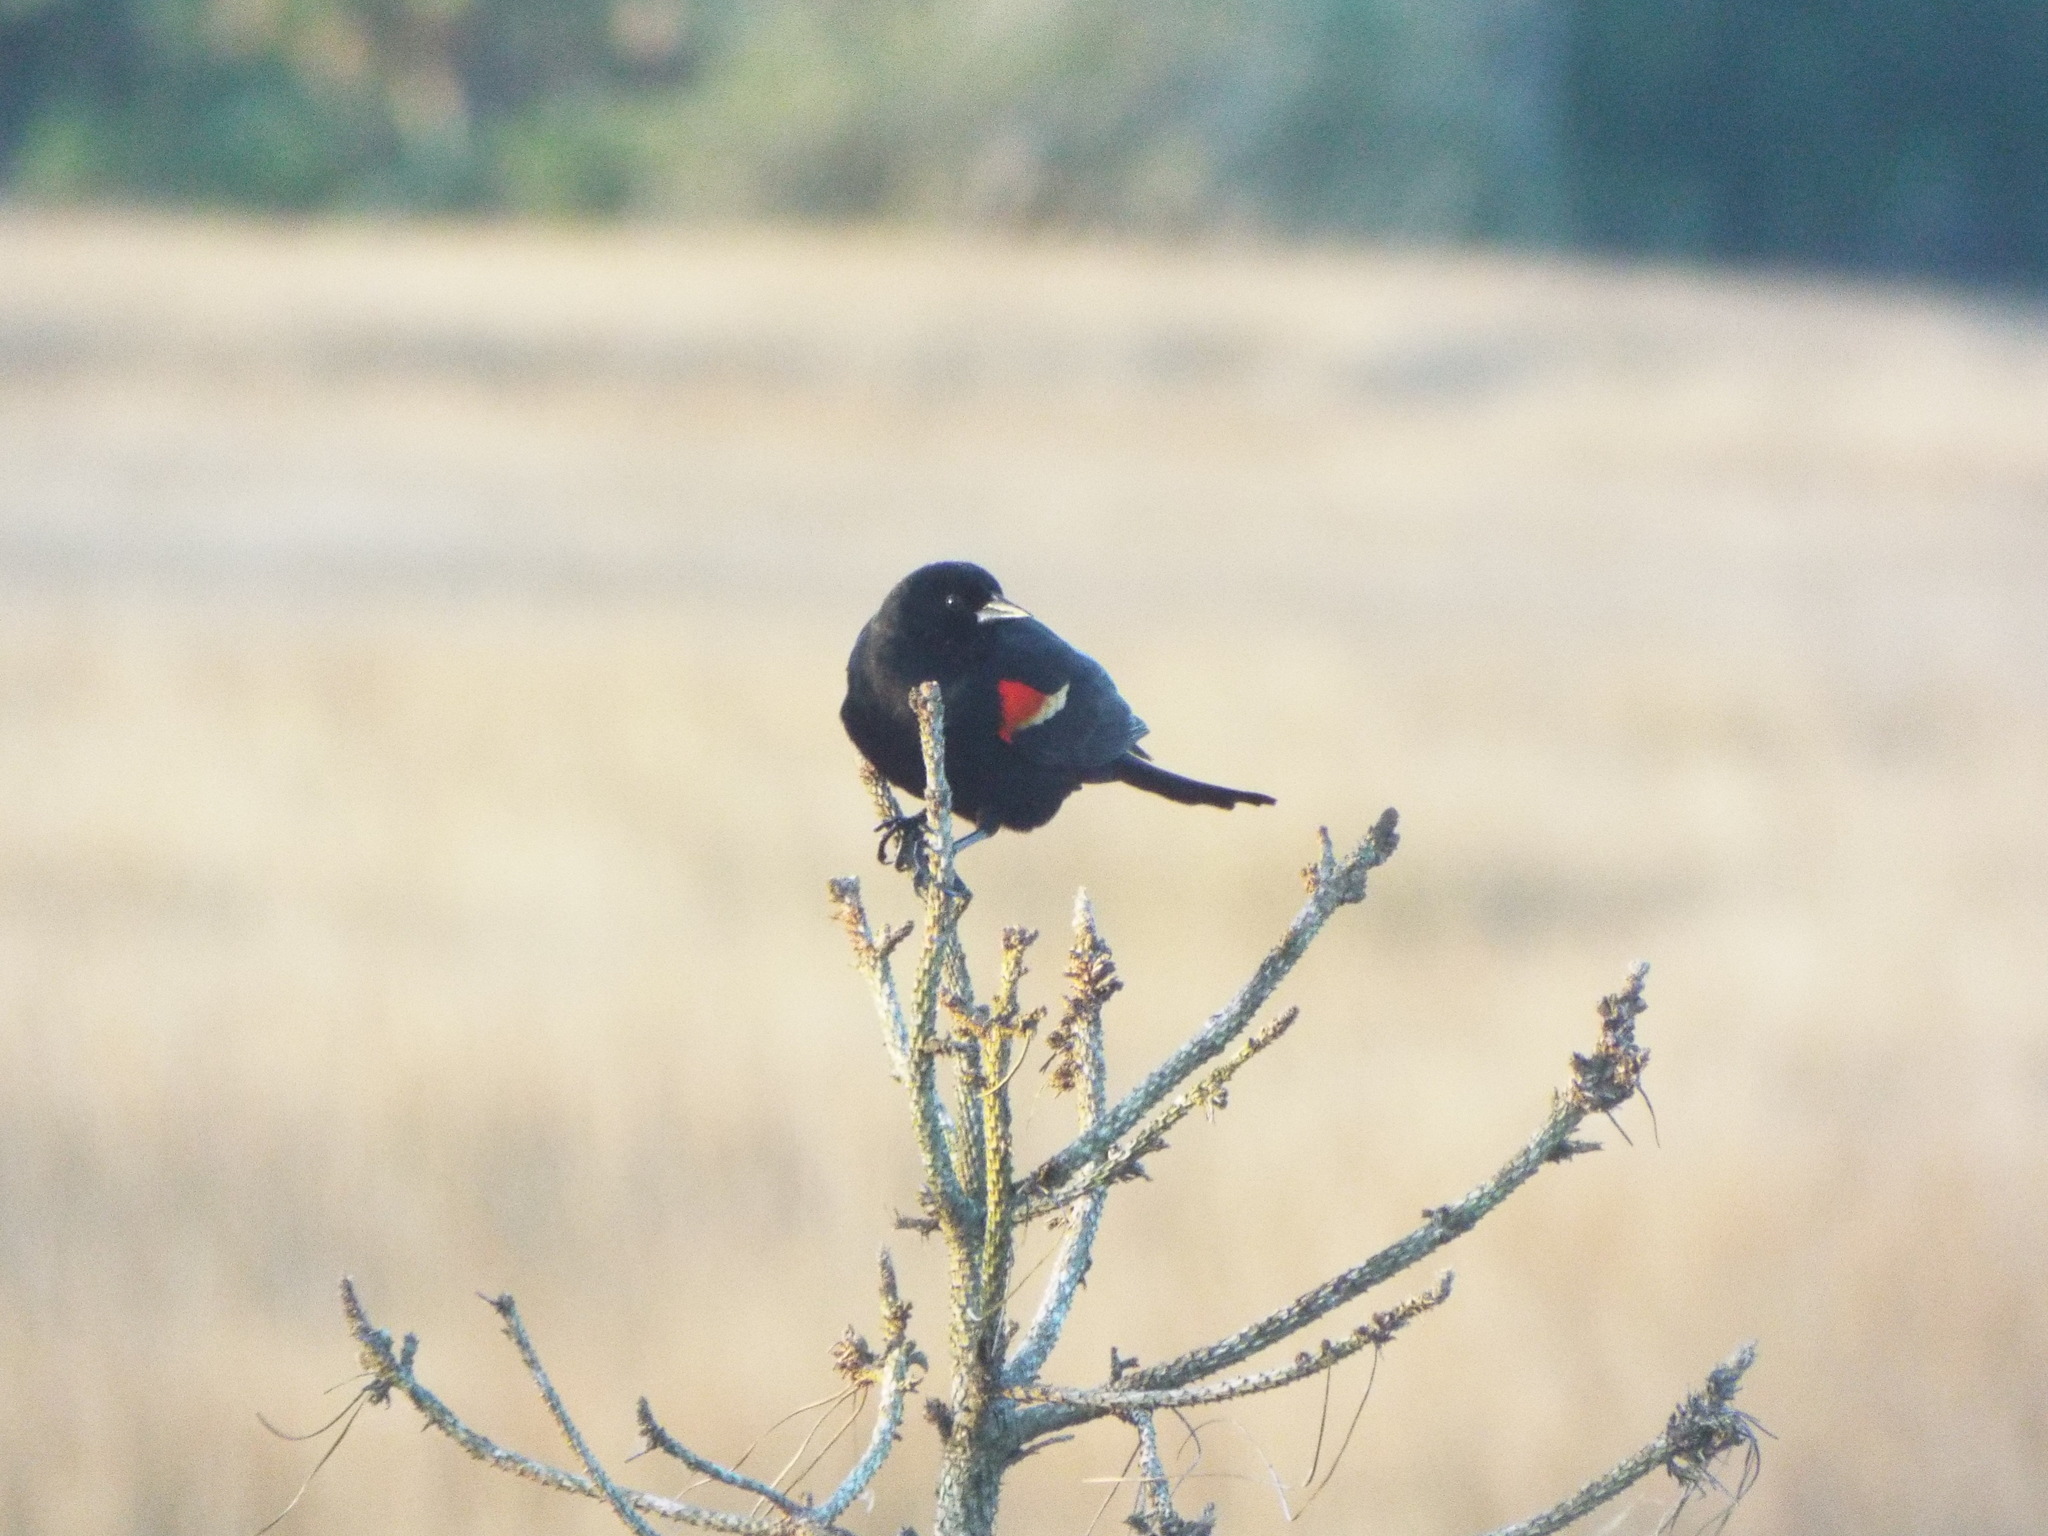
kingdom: Animalia
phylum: Chordata
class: Aves
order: Passeriformes
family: Icteridae
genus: Agelaius
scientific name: Agelaius phoeniceus
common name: Red-winged blackbird
